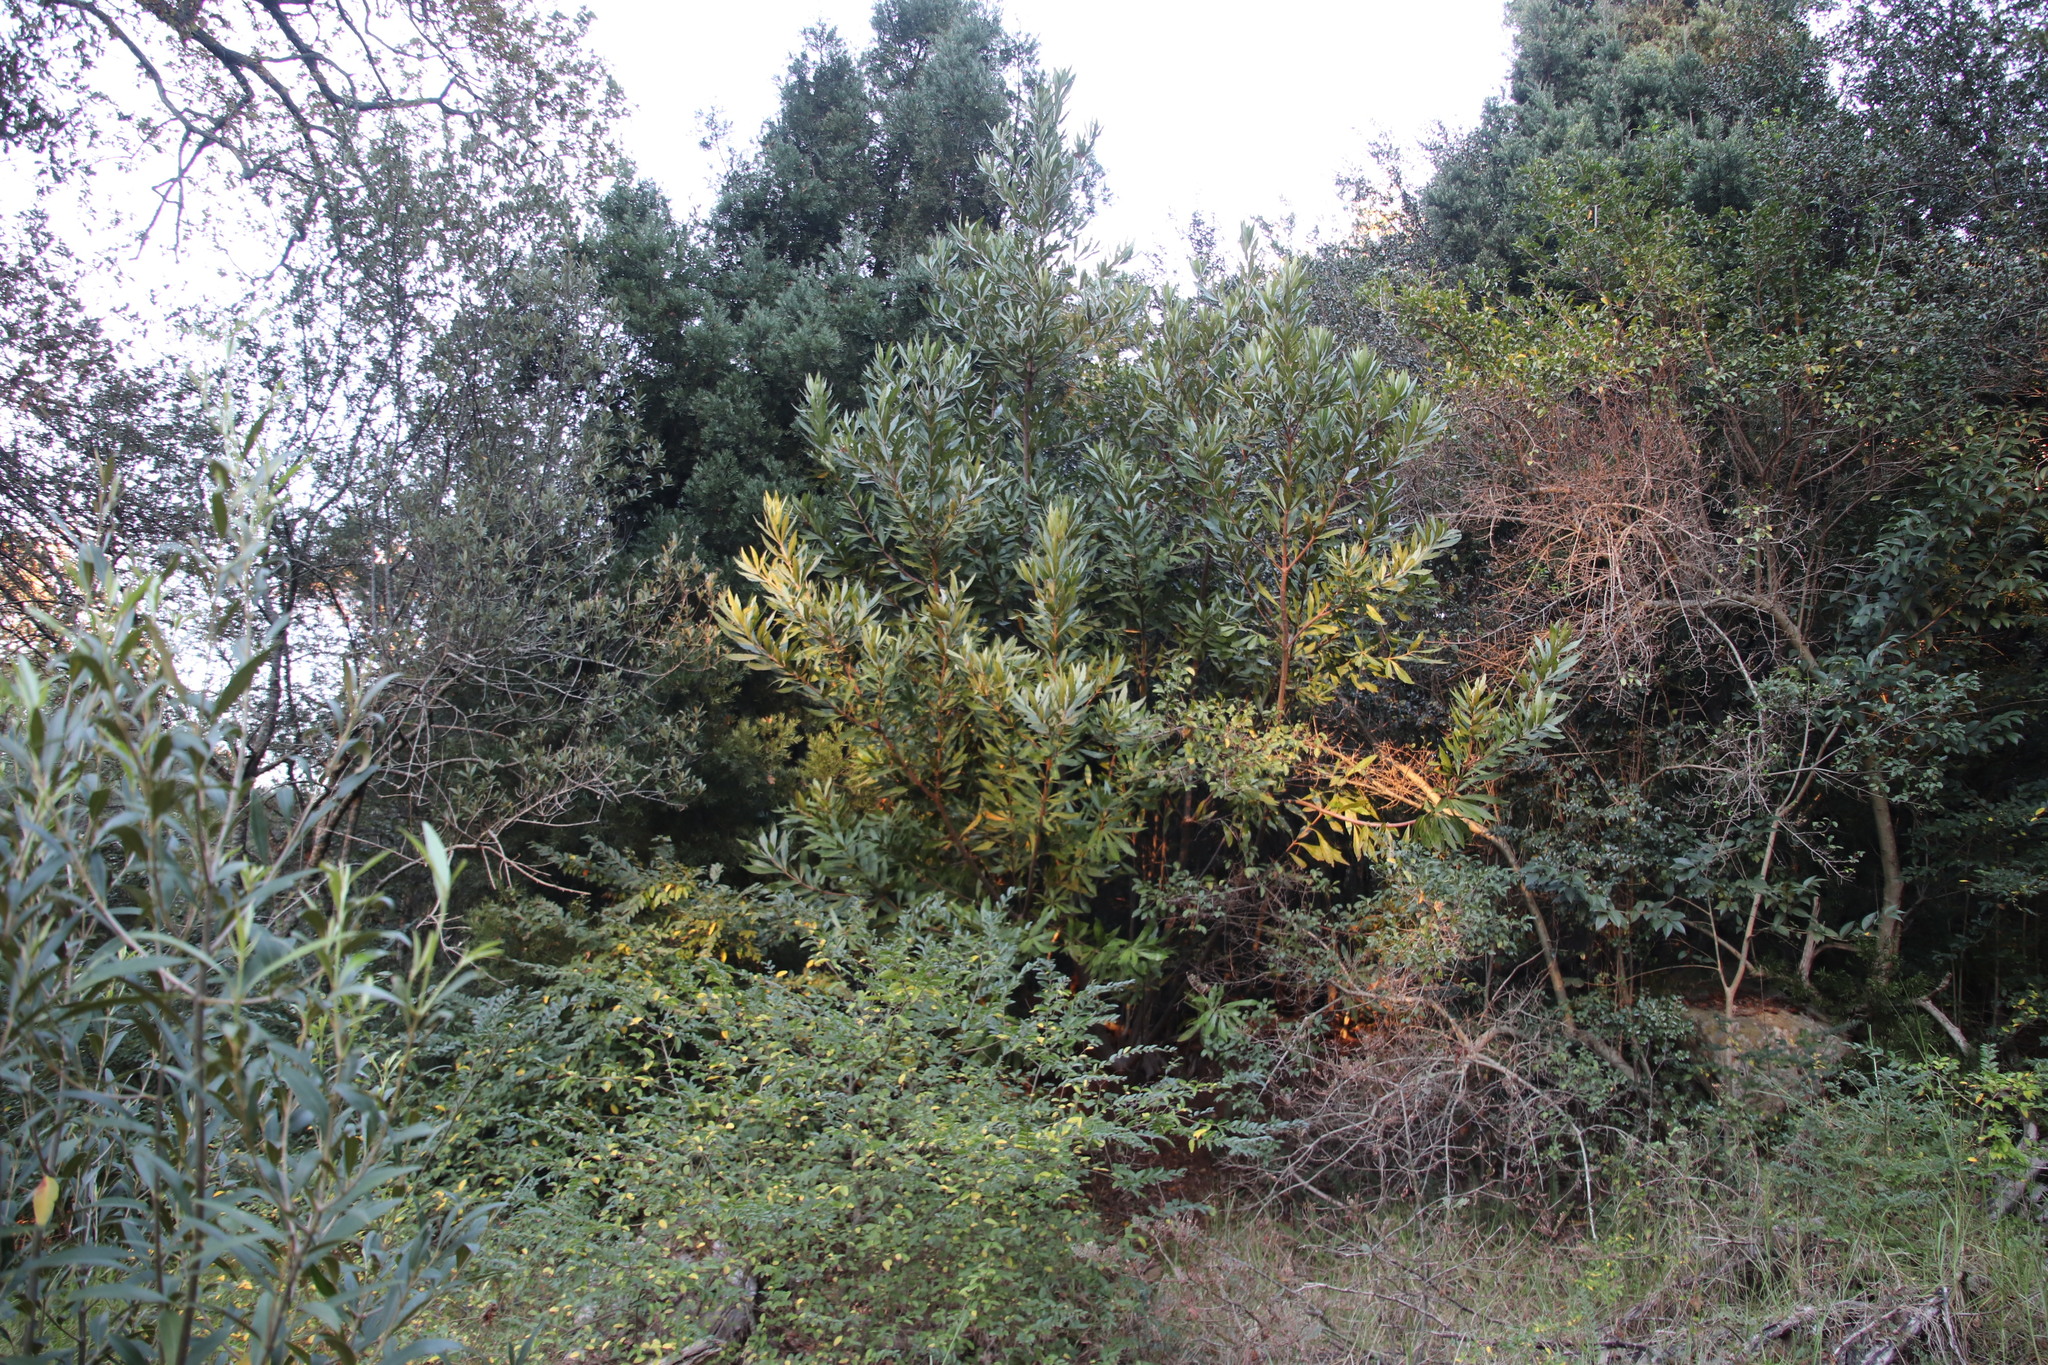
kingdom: Plantae
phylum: Tracheophyta
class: Magnoliopsida
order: Proteales
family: Proteaceae
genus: Brabejum
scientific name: Brabejum stellatifolium
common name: Wild almond
